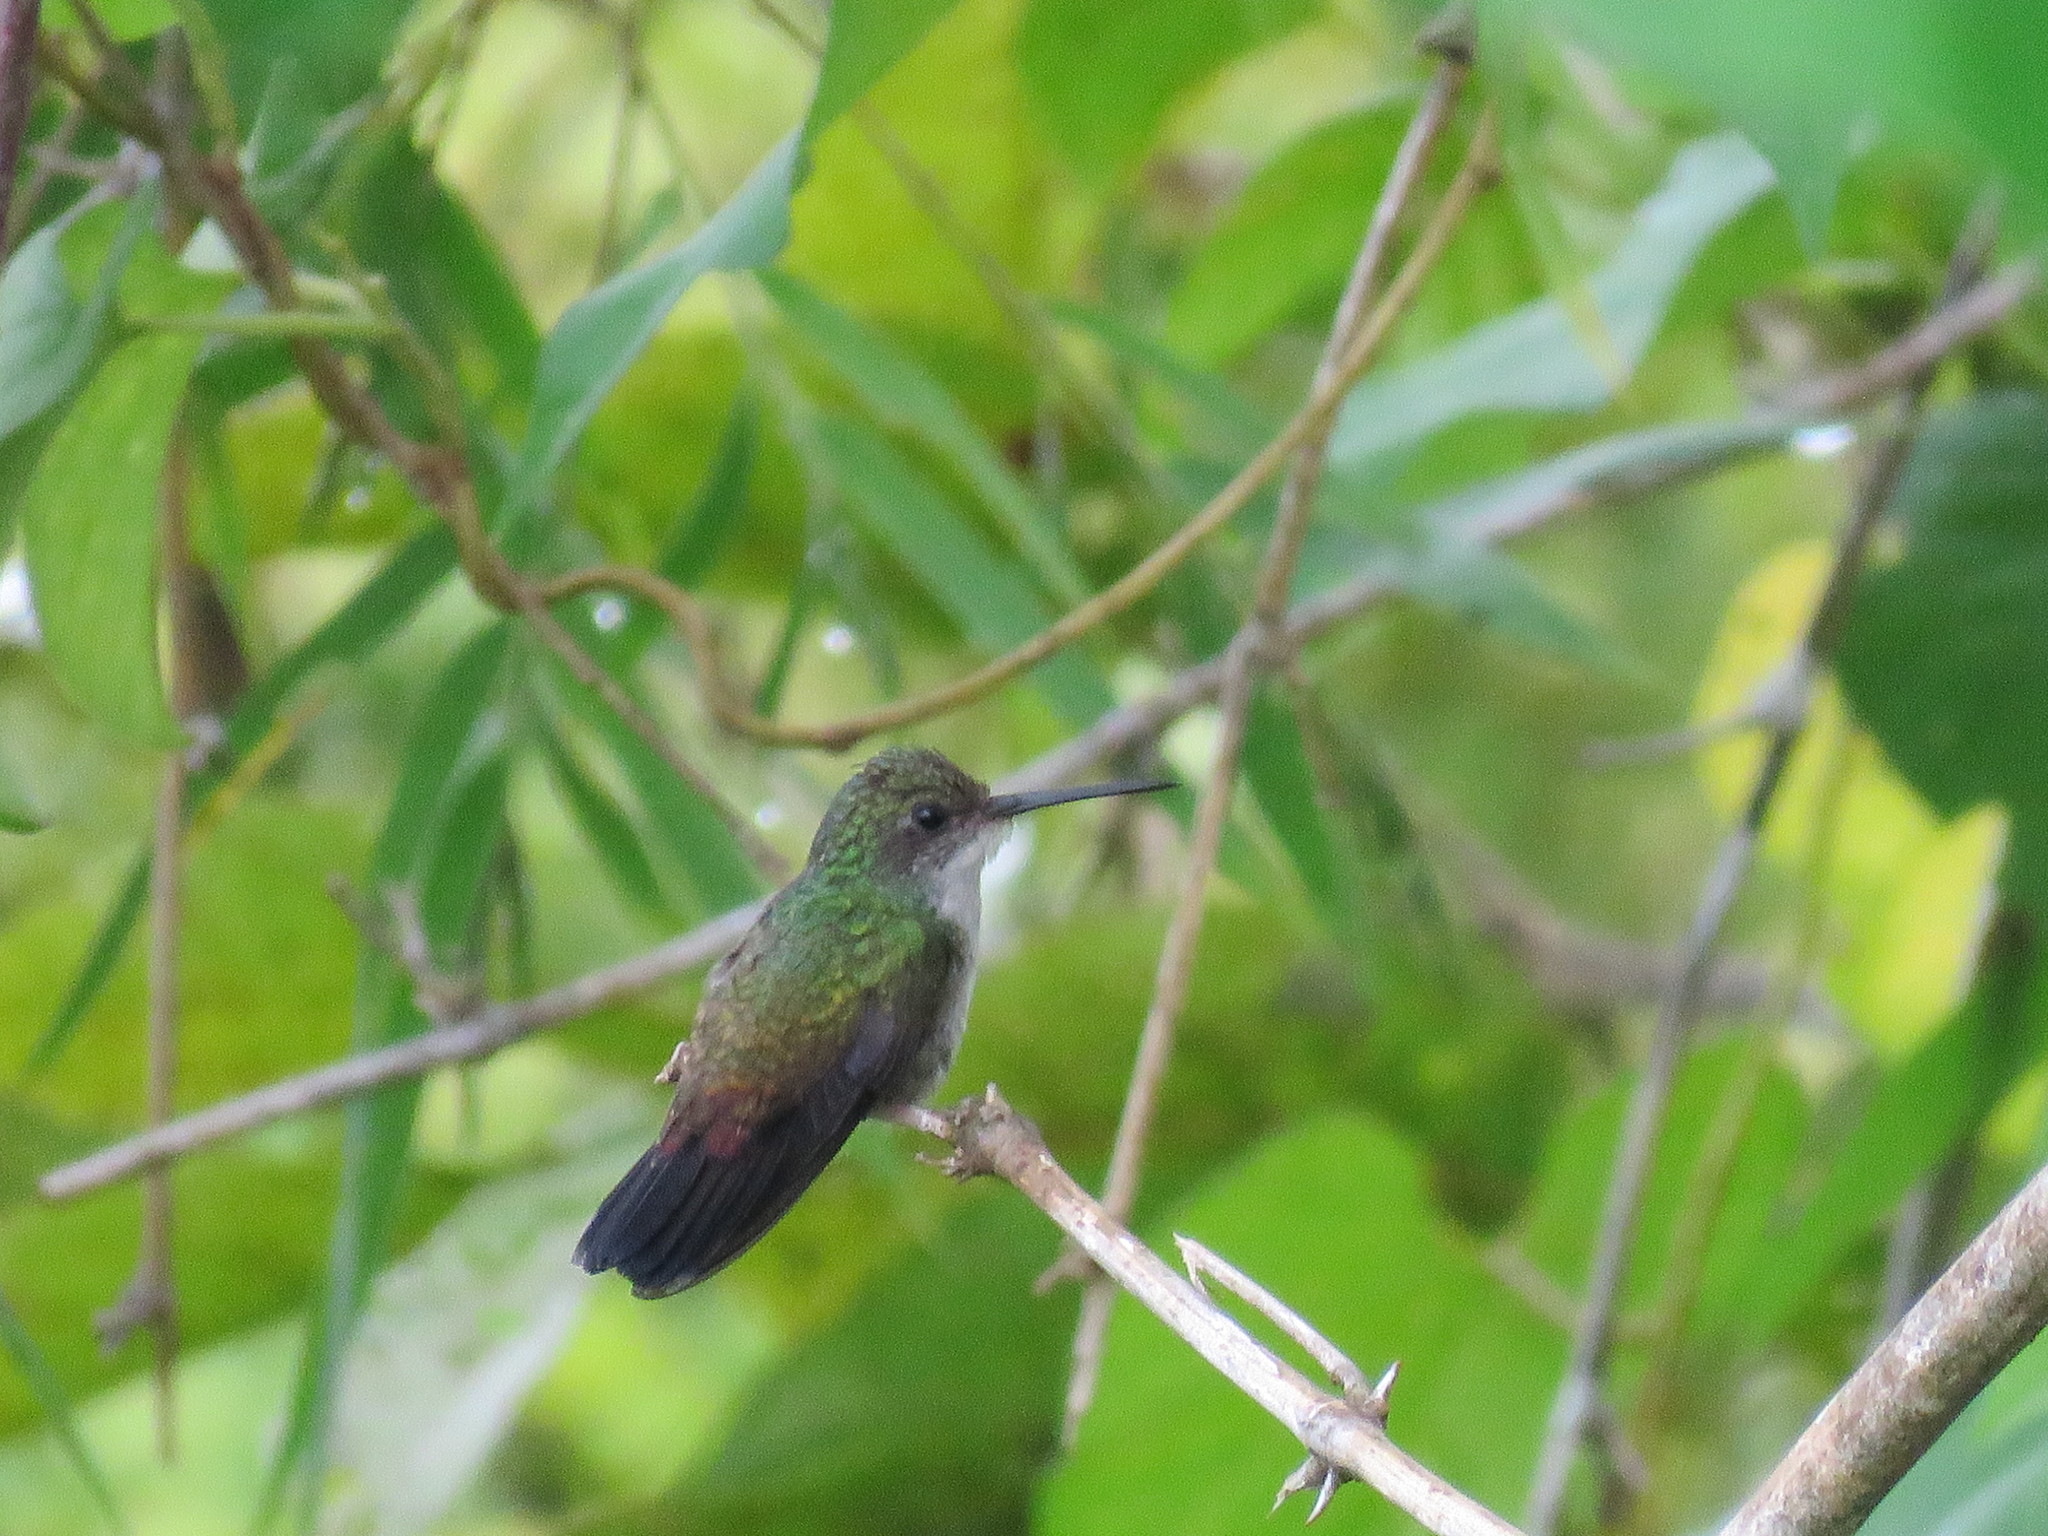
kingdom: Animalia
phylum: Chordata
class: Aves
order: Apodiformes
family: Trochilidae
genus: Chlorestes
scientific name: Chlorestes cyanus
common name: White-chinned sapphire
